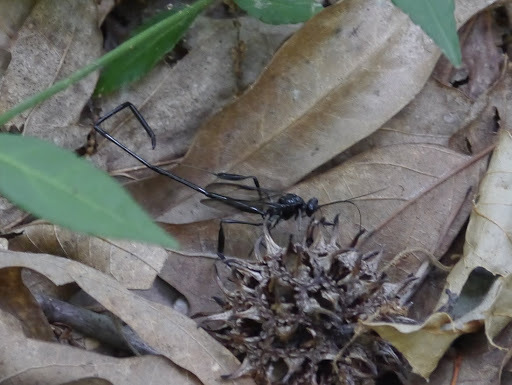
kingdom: Animalia
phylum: Arthropoda
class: Insecta
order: Hymenoptera
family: Pelecinidae
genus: Pelecinus
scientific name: Pelecinus polyturator
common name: American pelecinid wasp
